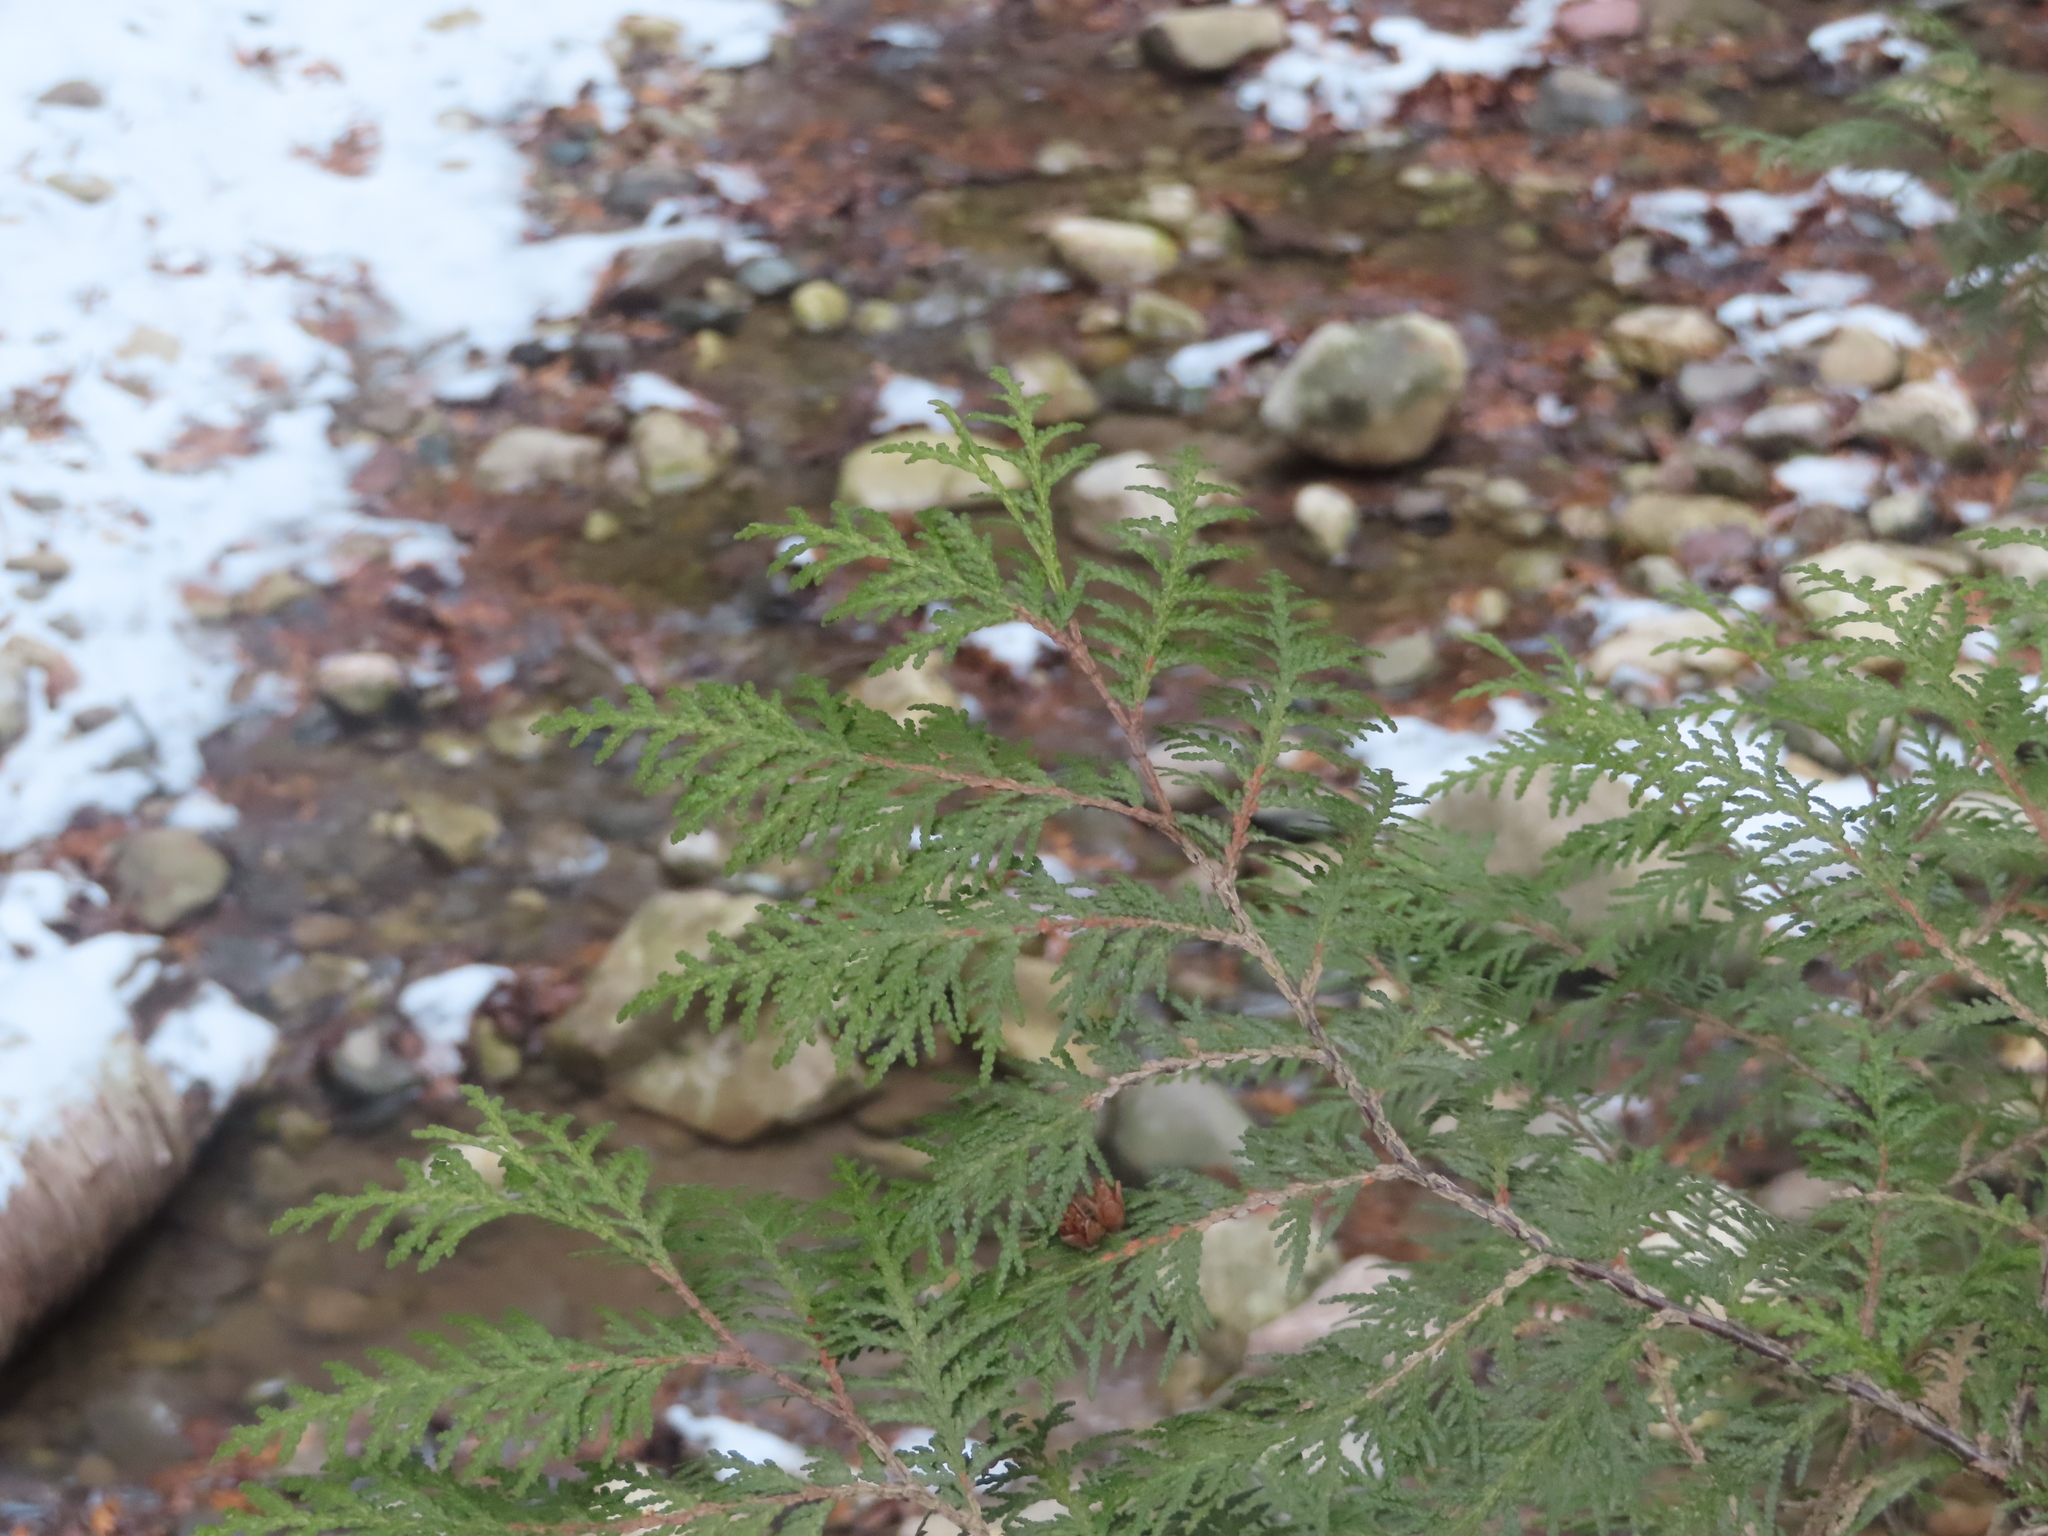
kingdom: Plantae
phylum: Tracheophyta
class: Pinopsida
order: Pinales
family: Cupressaceae
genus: Thuja
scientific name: Thuja occidentalis
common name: Northern white-cedar
